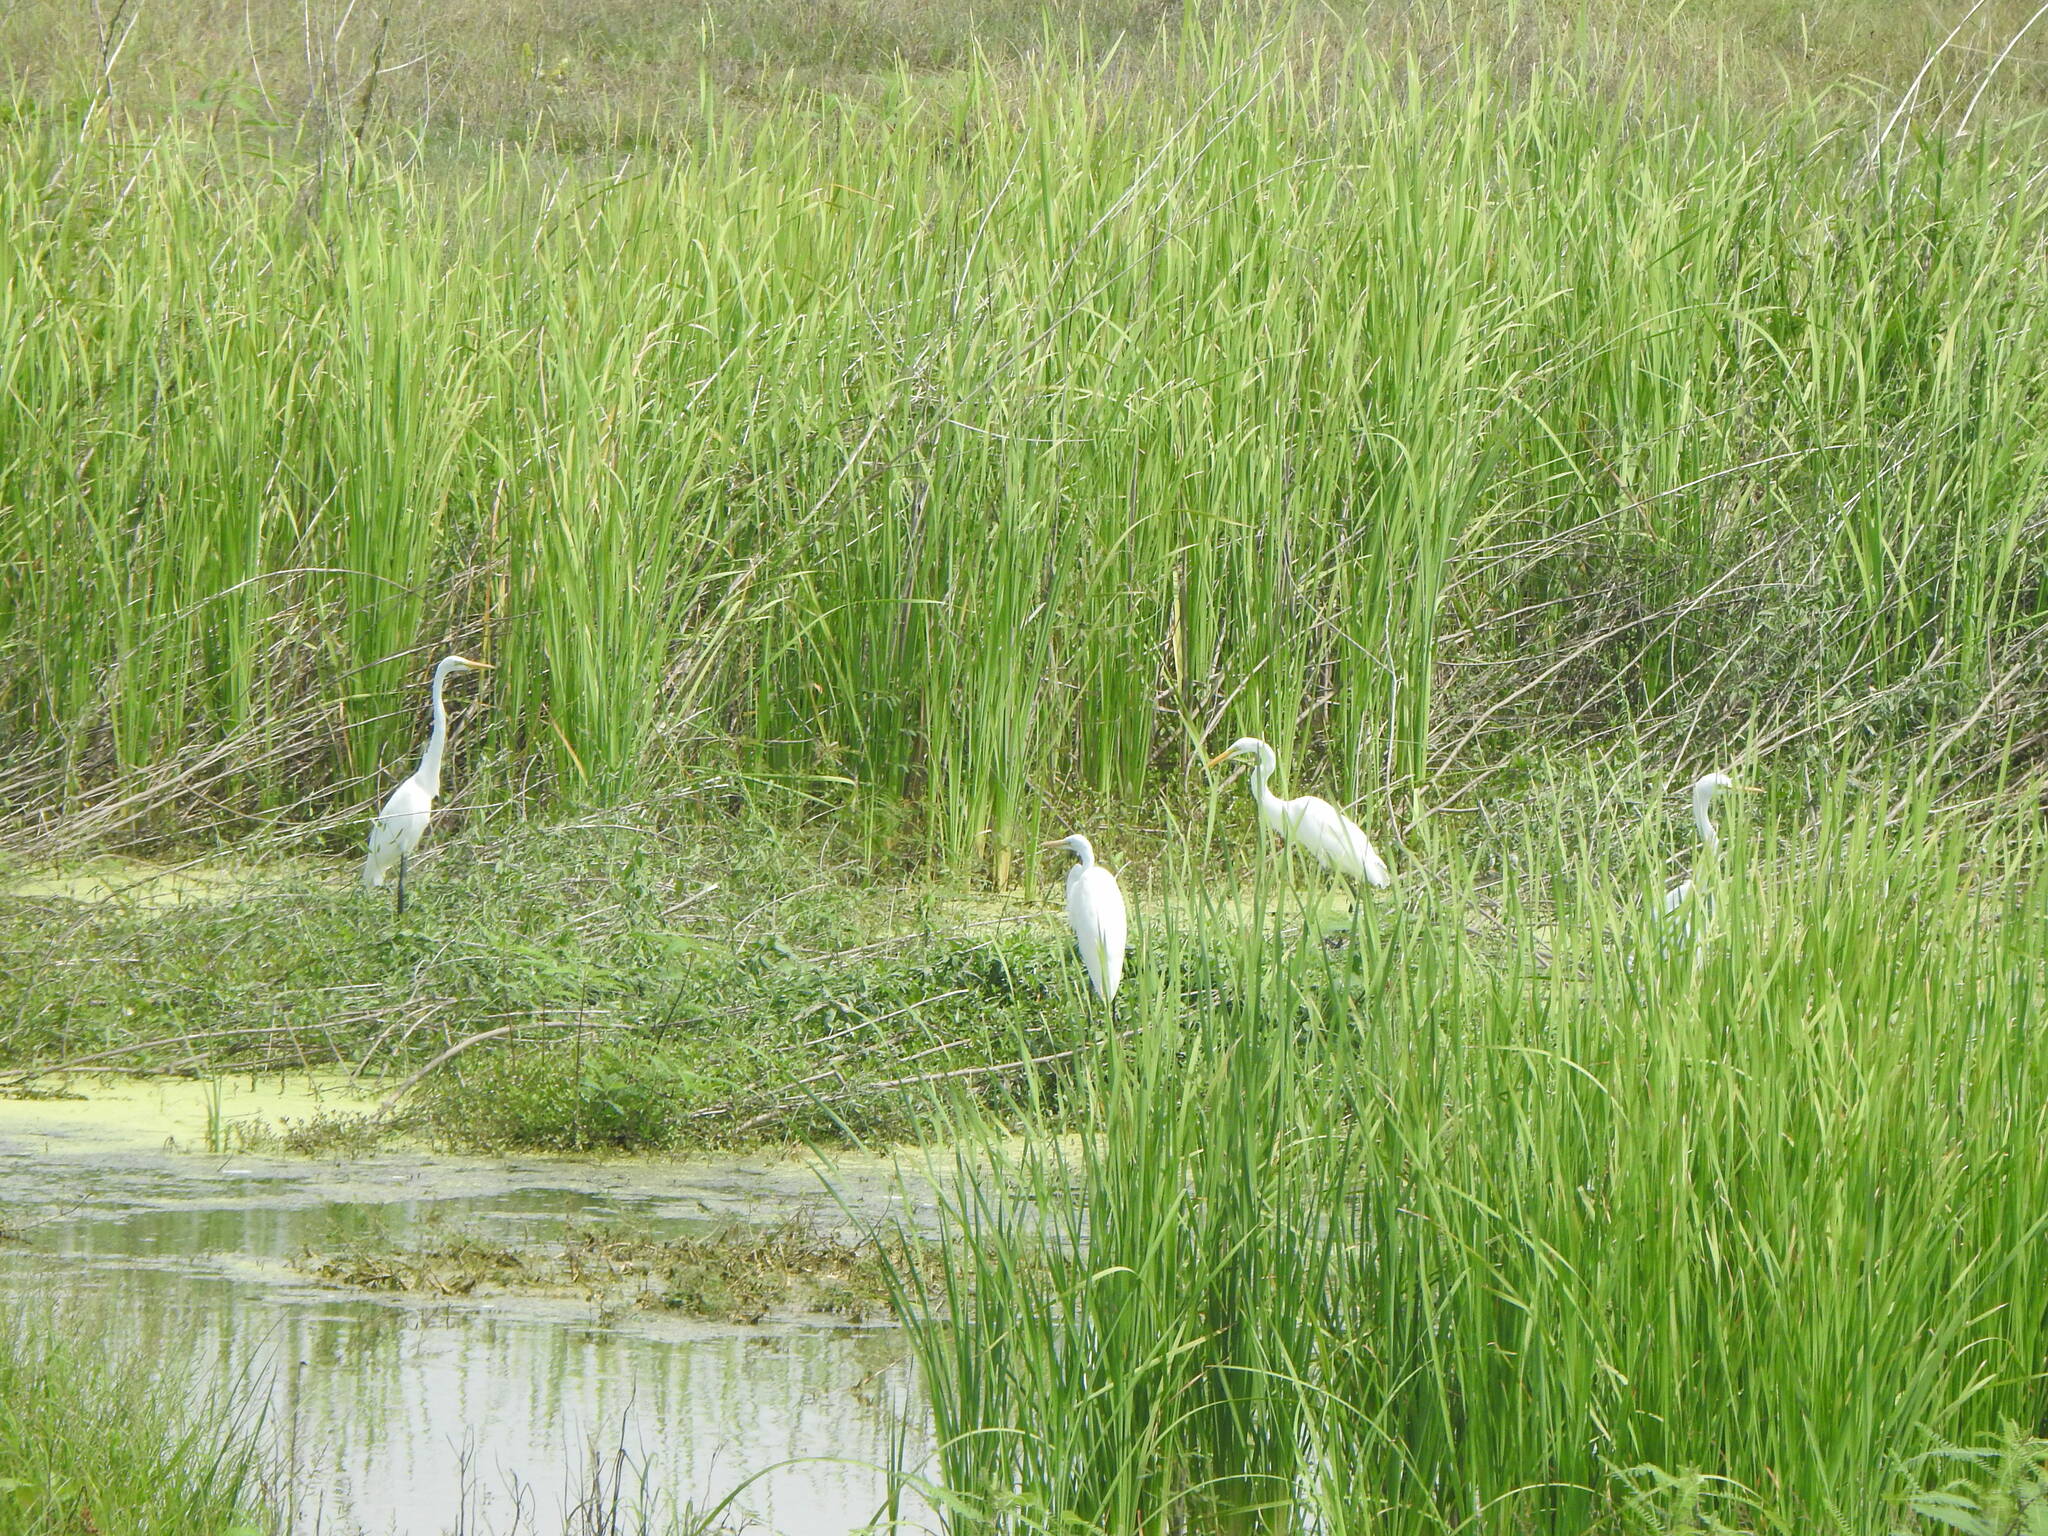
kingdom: Animalia
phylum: Chordata
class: Aves
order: Pelecaniformes
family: Ardeidae
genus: Ardea
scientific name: Ardea alba
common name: Great egret
